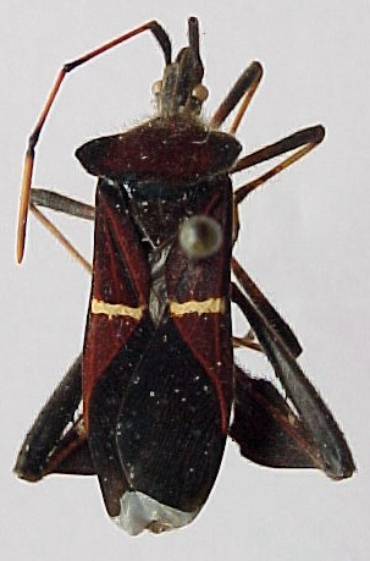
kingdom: Animalia
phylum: Arthropoda
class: Insecta
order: Hemiptera
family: Coreidae
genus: Leptoglossus
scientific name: Leptoglossus cartagoensis
